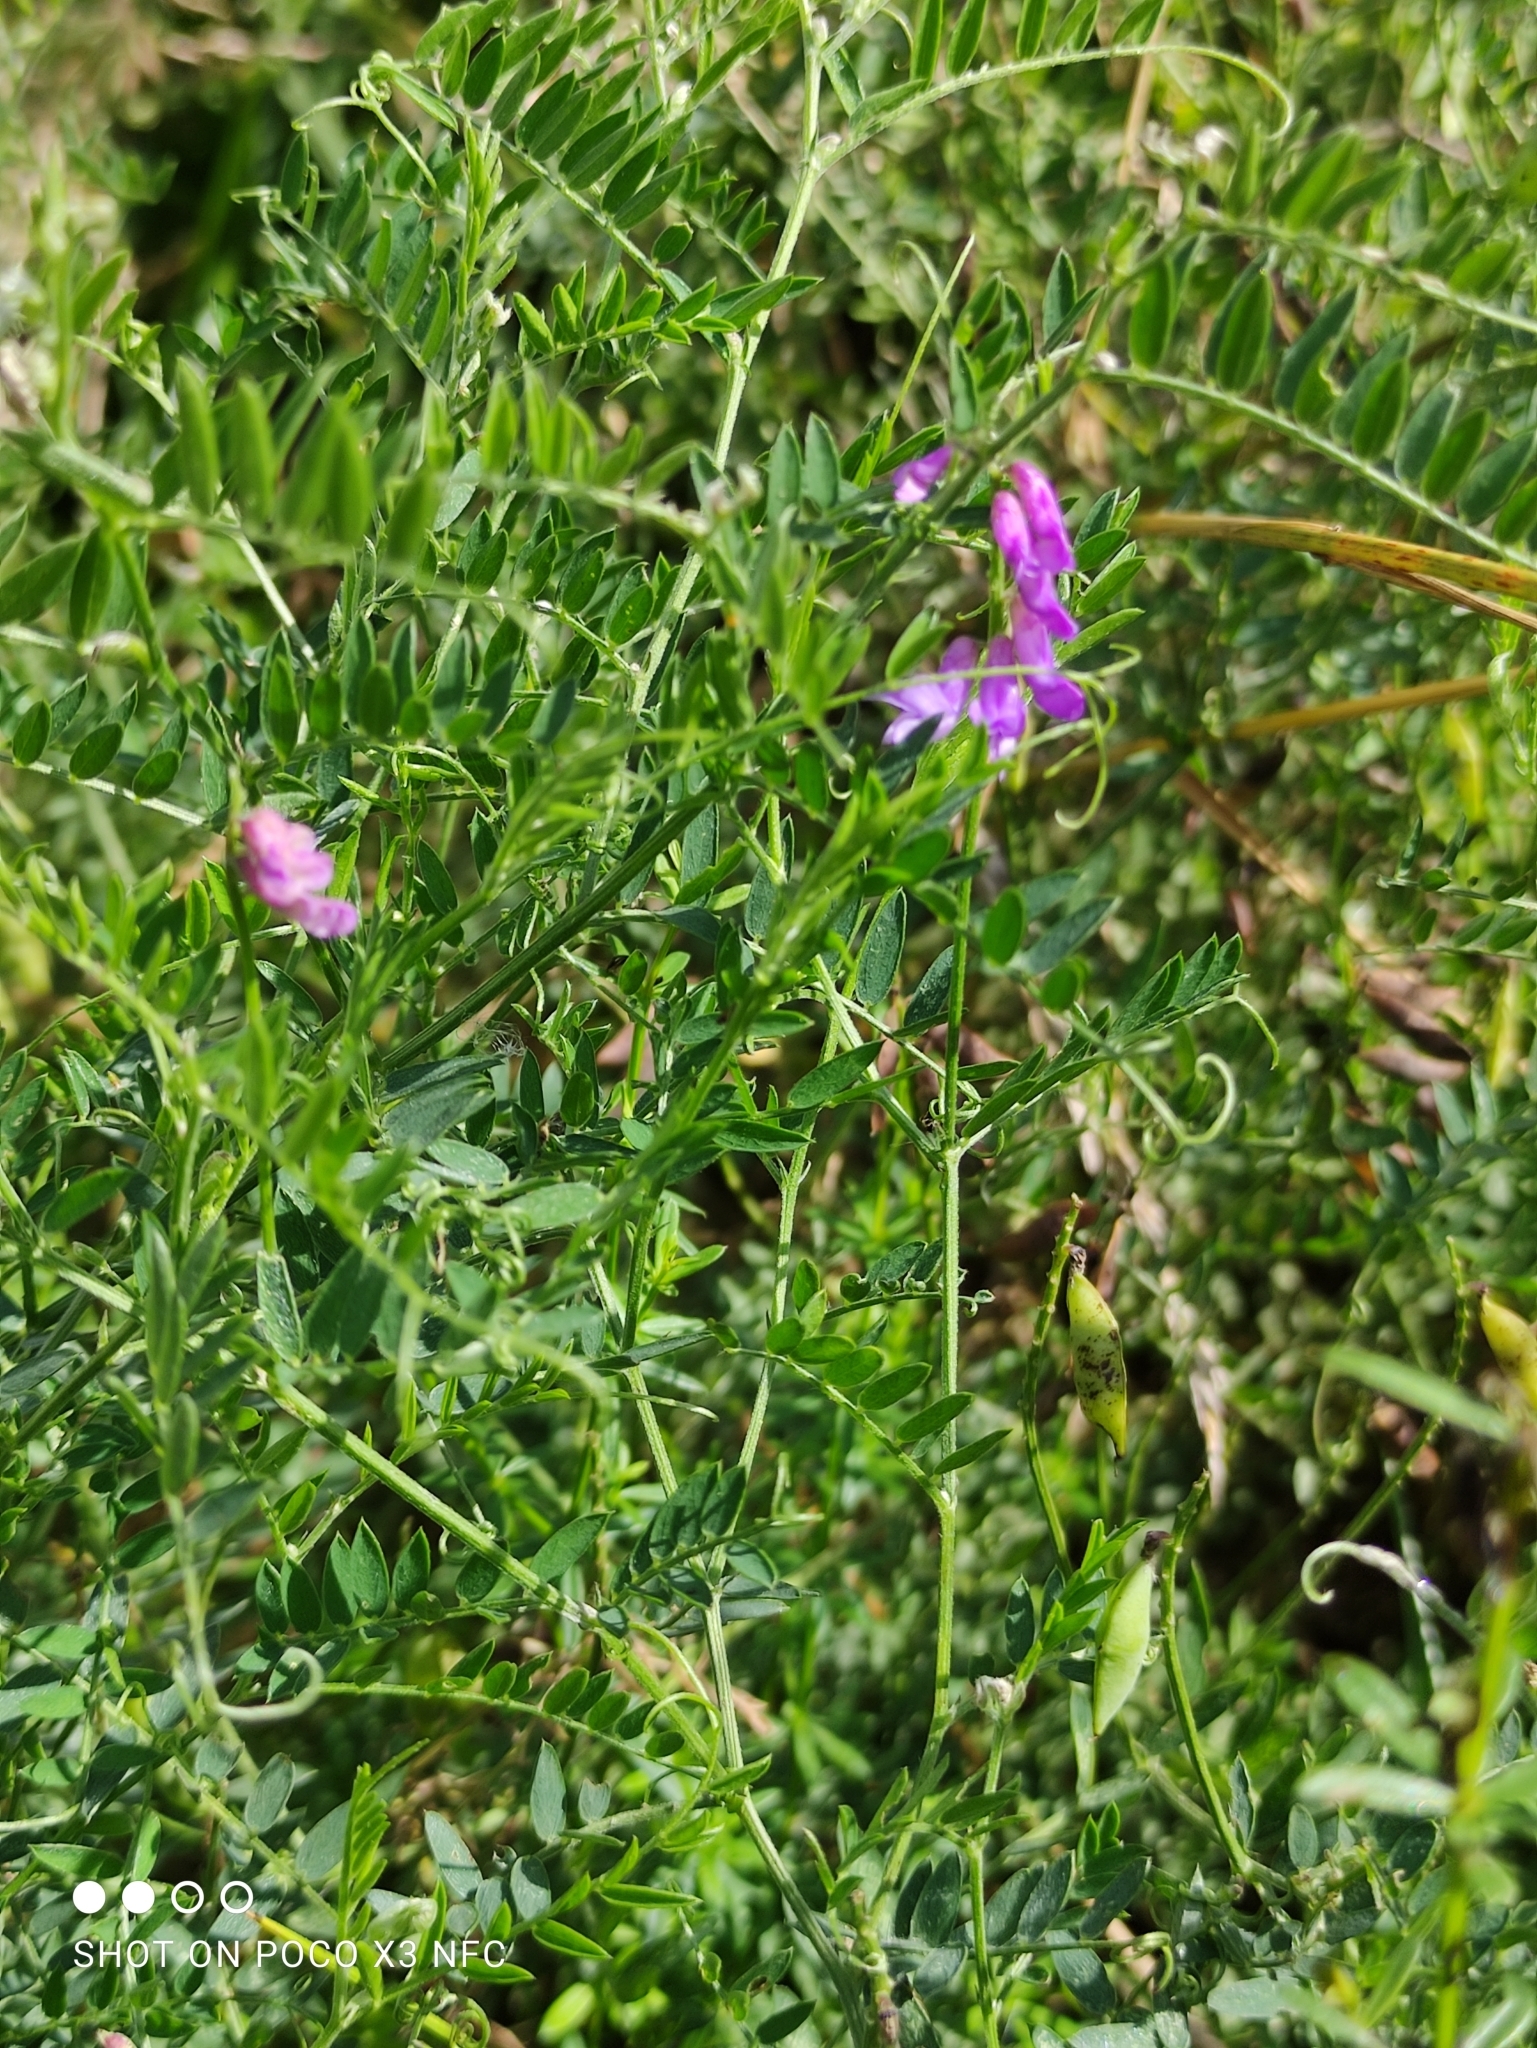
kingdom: Plantae
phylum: Tracheophyta
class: Magnoliopsida
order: Fabales
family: Fabaceae
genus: Vicia
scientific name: Vicia cracca
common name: Bird vetch
